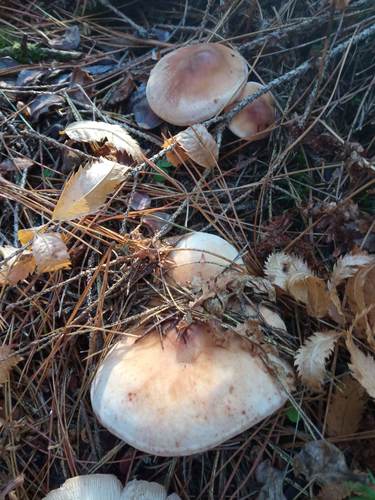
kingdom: Fungi
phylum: Basidiomycota
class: Agaricomycetes
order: Agaricales
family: Omphalotaceae
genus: Rhodocollybia
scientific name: Rhodocollybia maculata
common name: Spotted tough-shank
